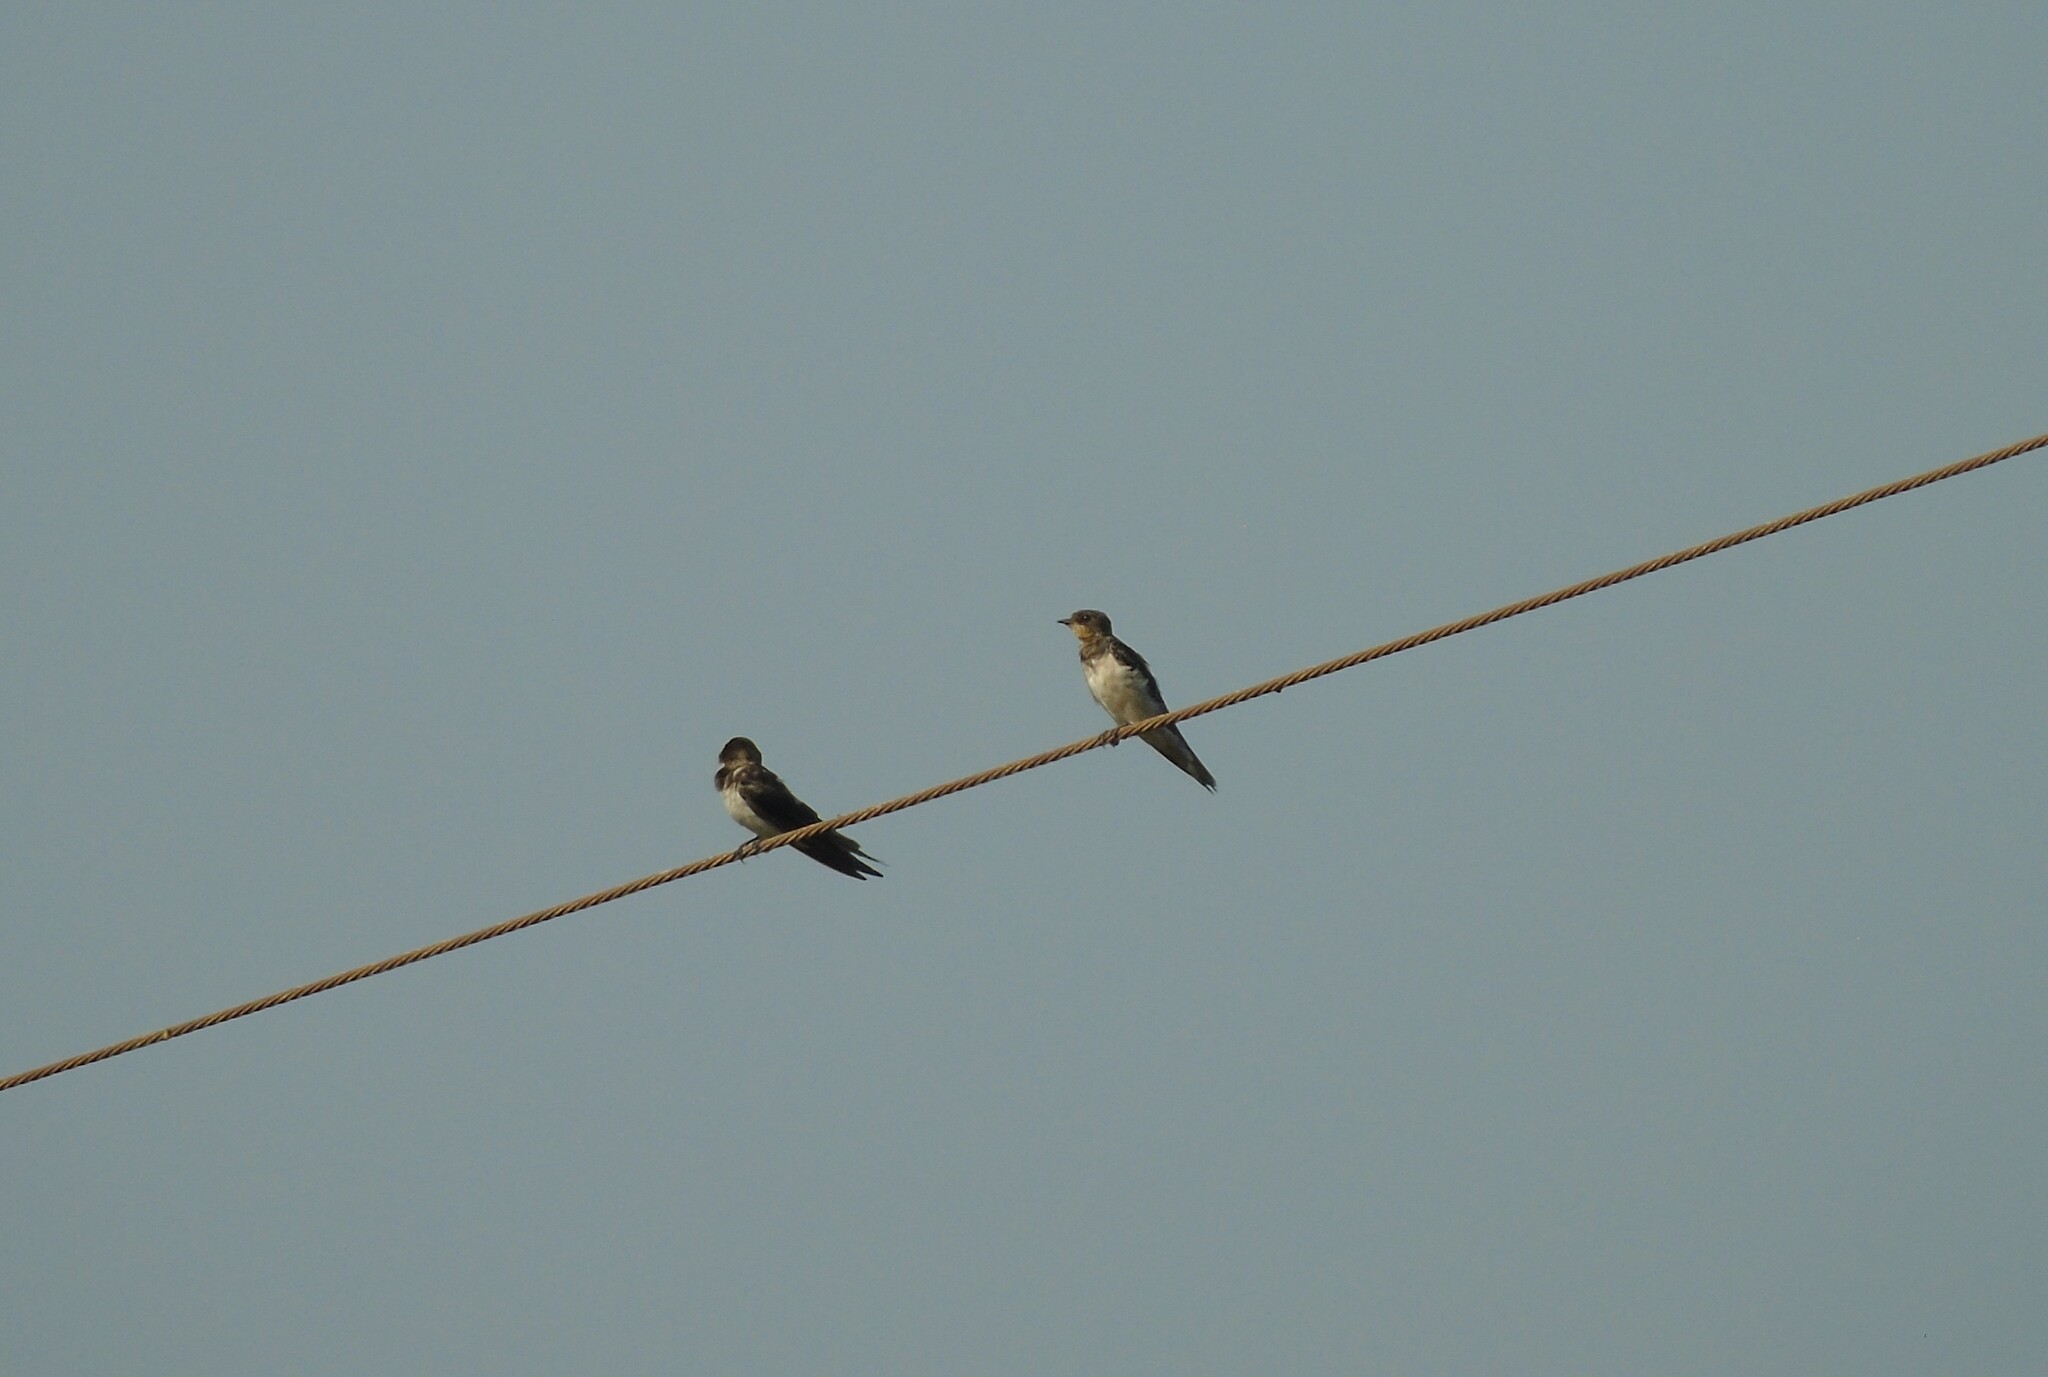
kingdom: Animalia
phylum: Chordata
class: Aves
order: Passeriformes
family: Hirundinidae
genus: Hirundo
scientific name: Hirundo rustica
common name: Barn swallow
